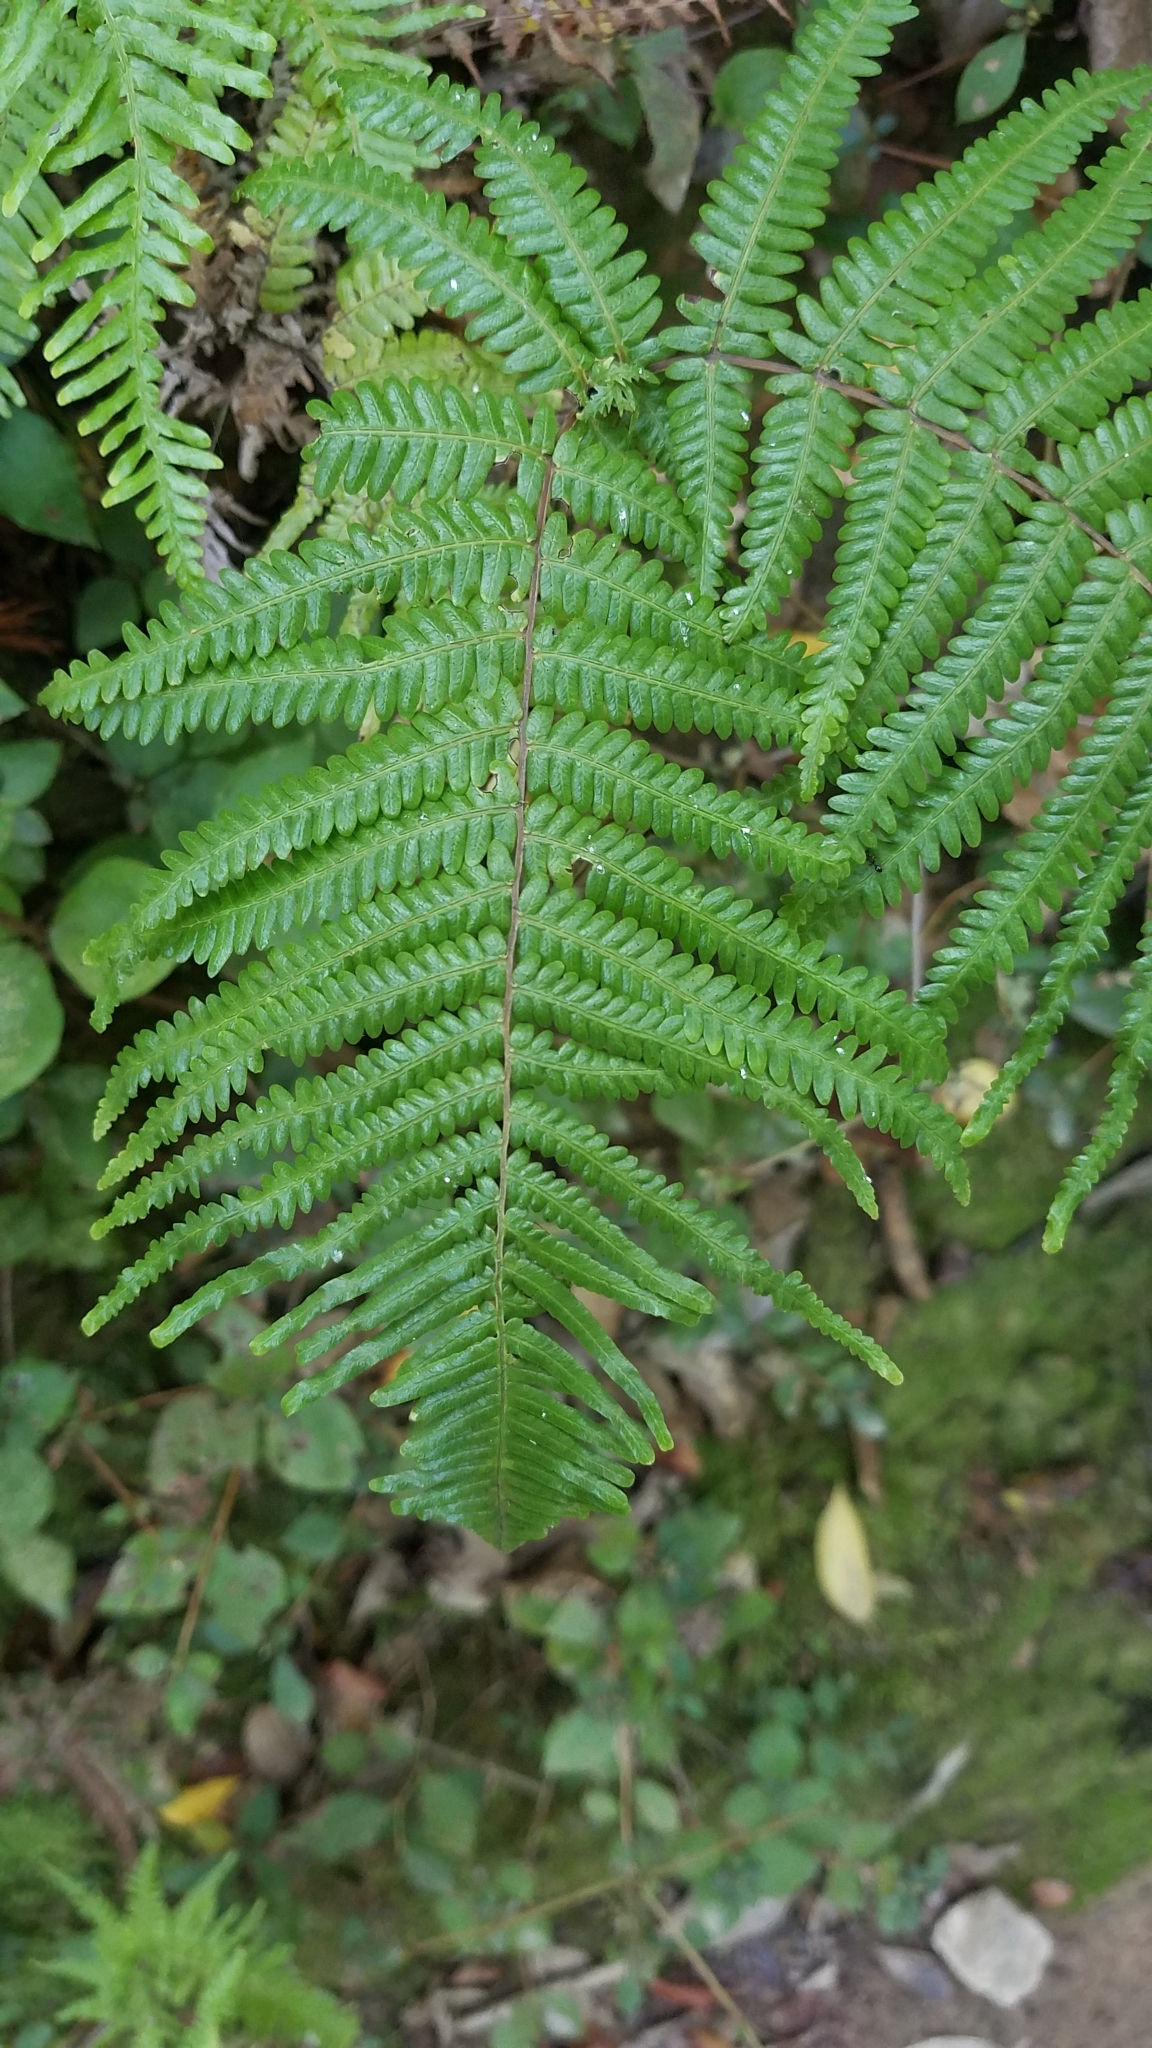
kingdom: Plantae
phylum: Tracheophyta
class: Polypodiopsida
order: Gleicheniales
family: Gleicheniaceae
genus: Diplopterygium
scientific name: Diplopterygium glaucum
